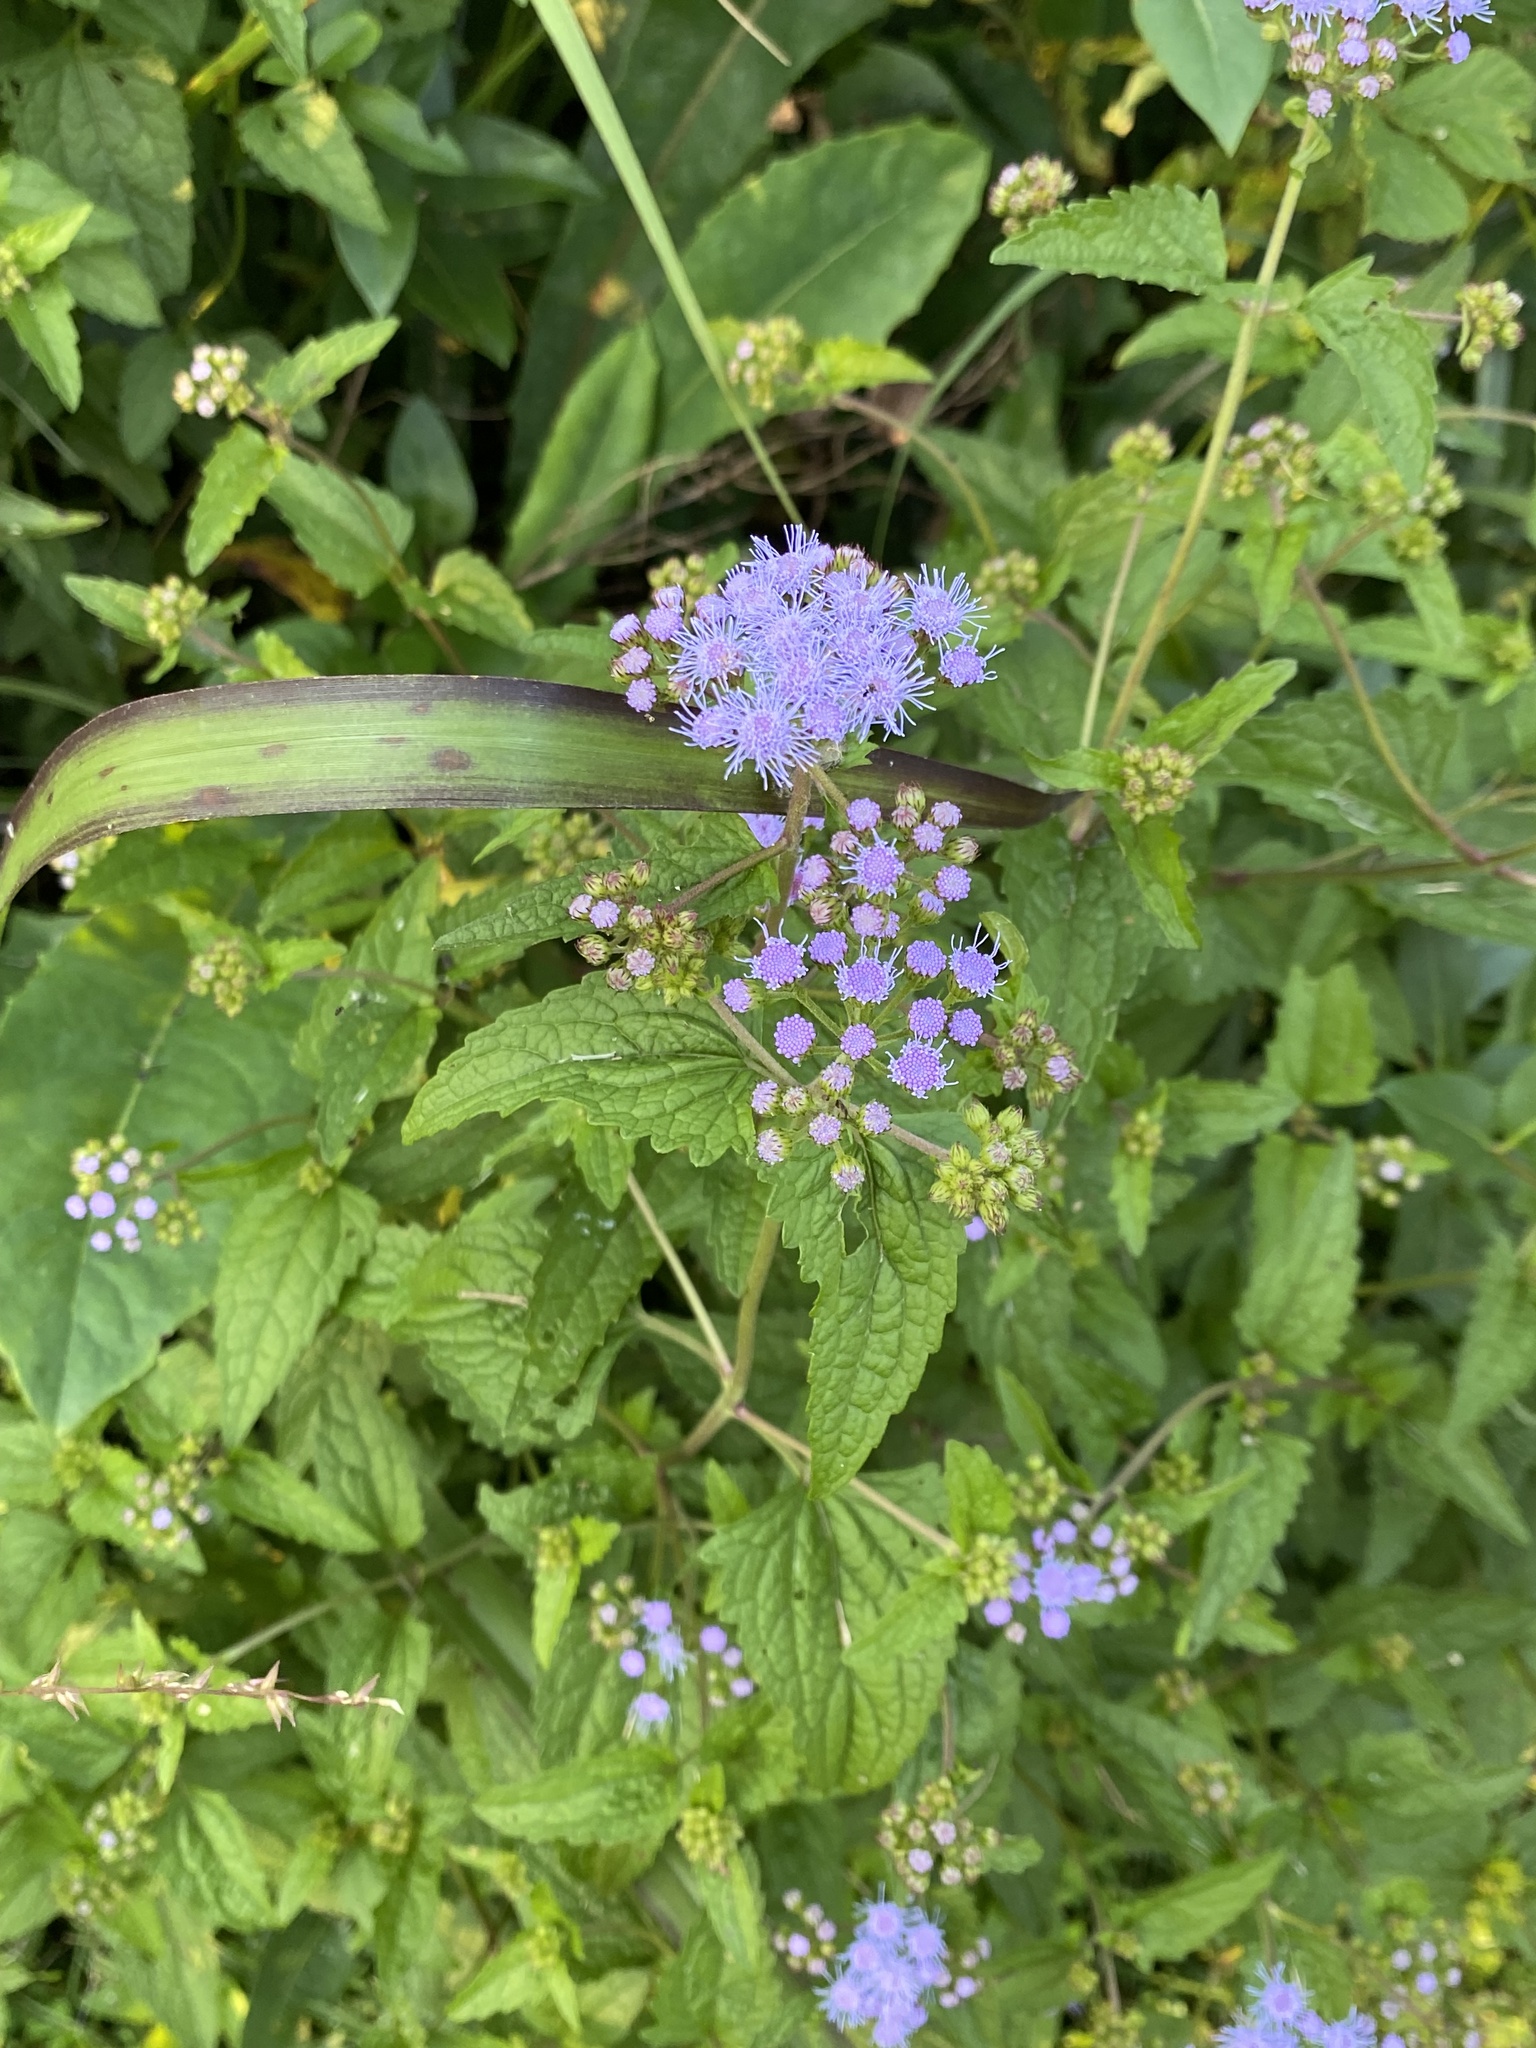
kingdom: Plantae
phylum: Tracheophyta
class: Magnoliopsida
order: Asterales
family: Asteraceae
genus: Conoclinium
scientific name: Conoclinium coelestinum
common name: Blue mistflower
